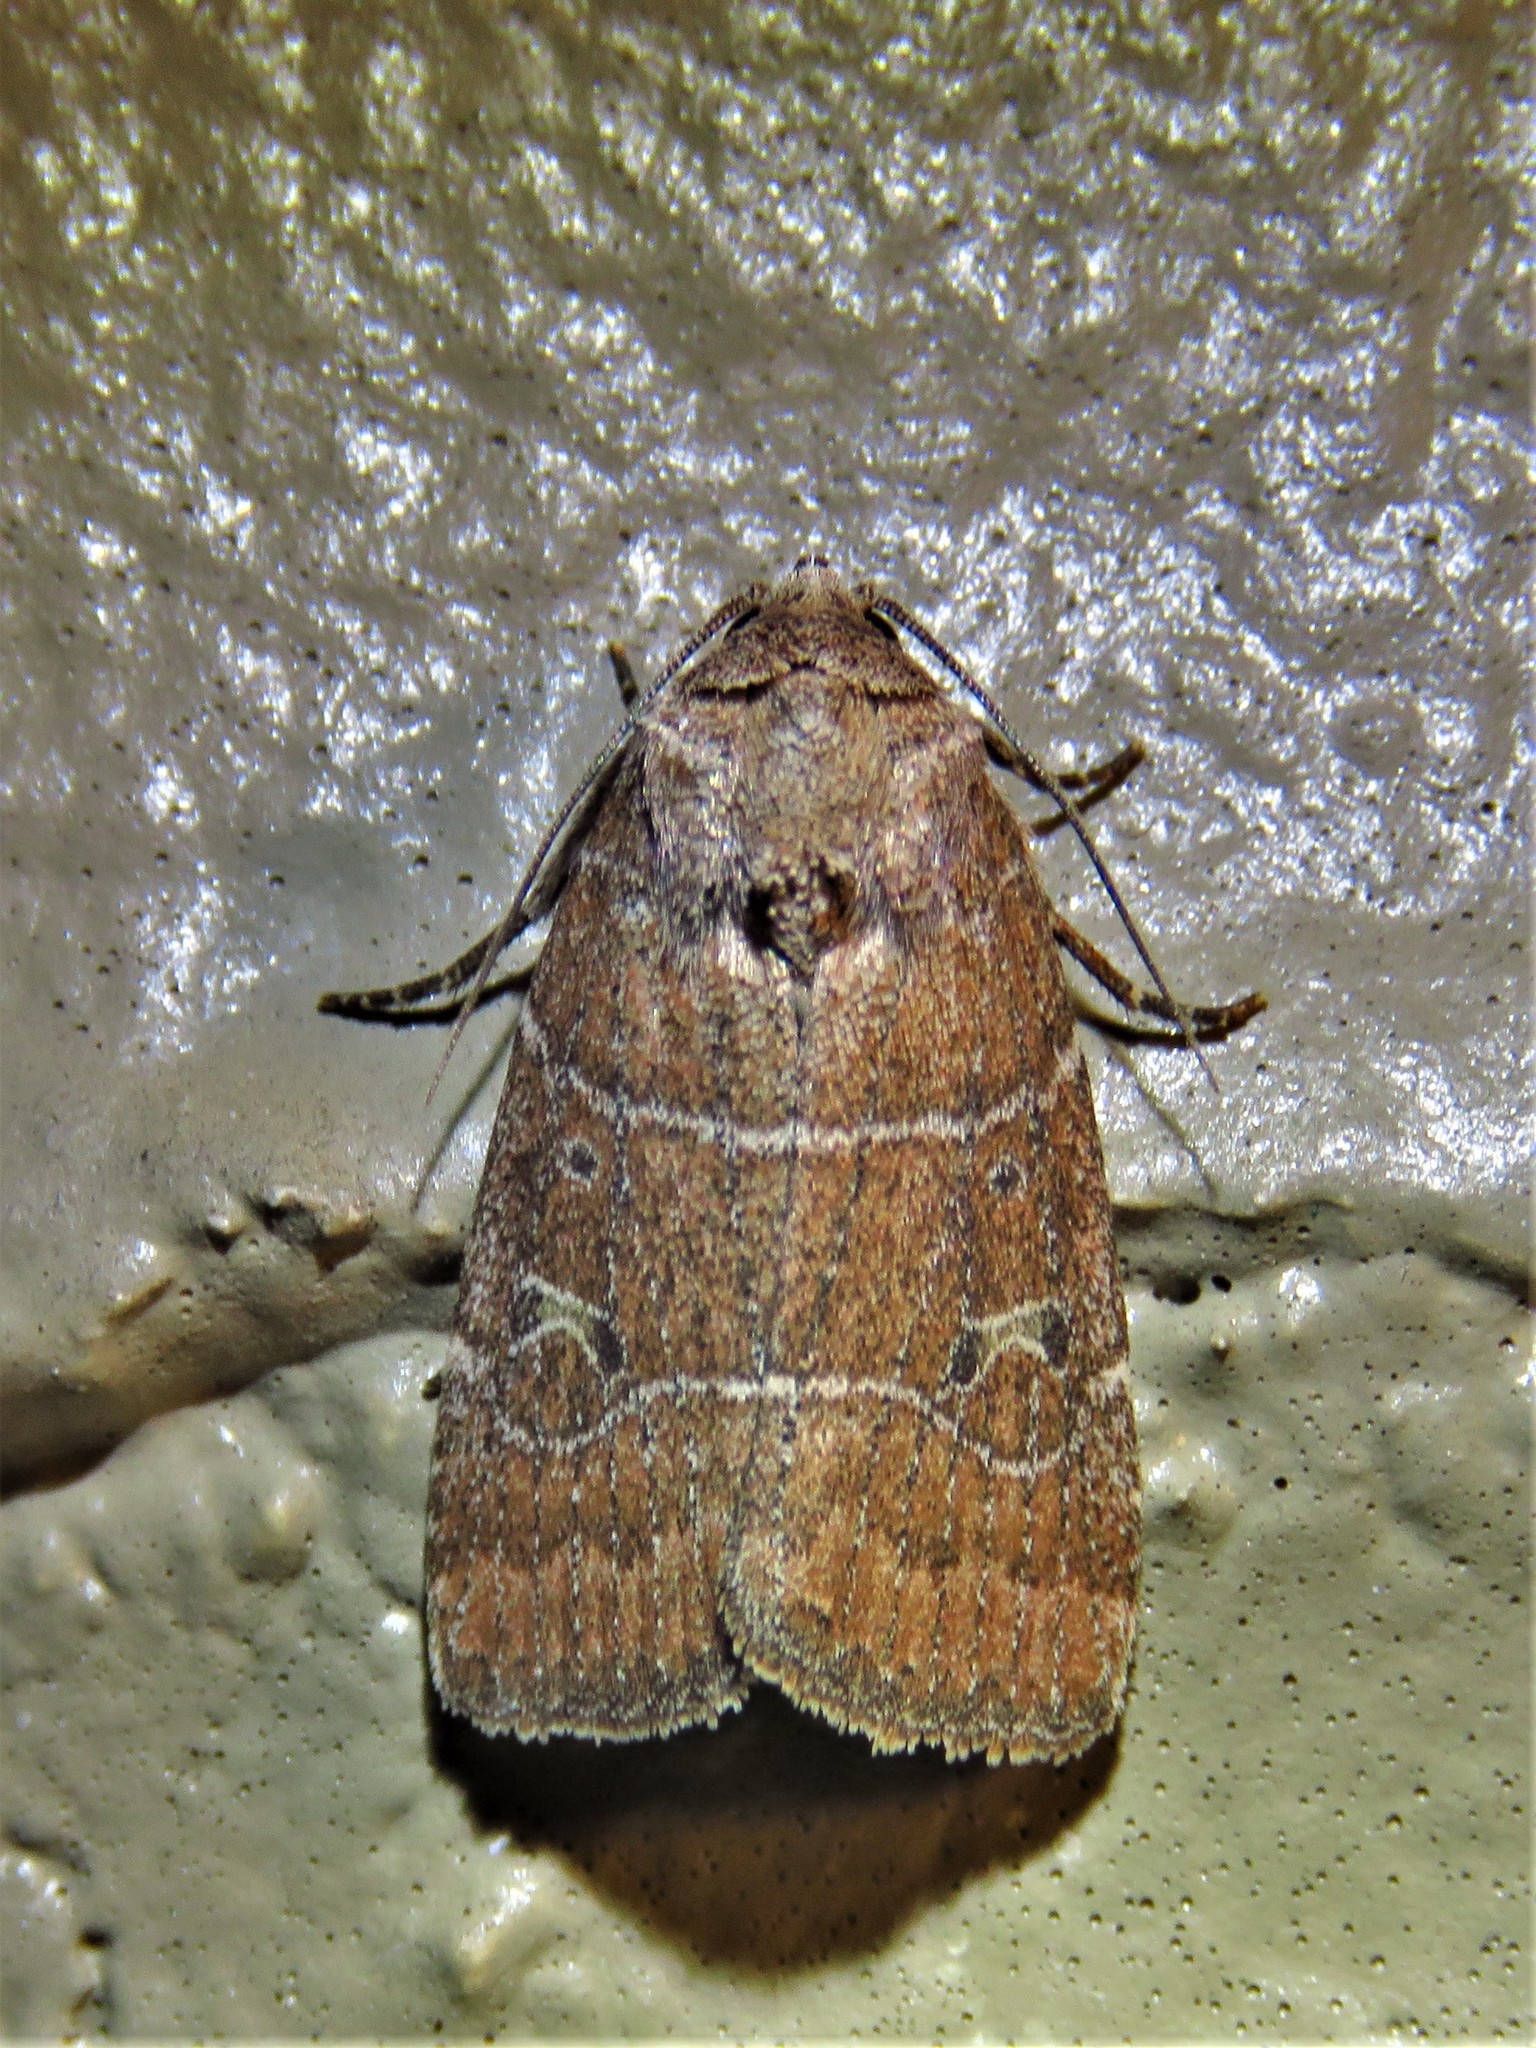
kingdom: Animalia
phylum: Arthropoda
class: Insecta
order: Lepidoptera
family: Noctuidae
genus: Elaphria
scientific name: Elaphria grata
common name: Grateful midget moth
